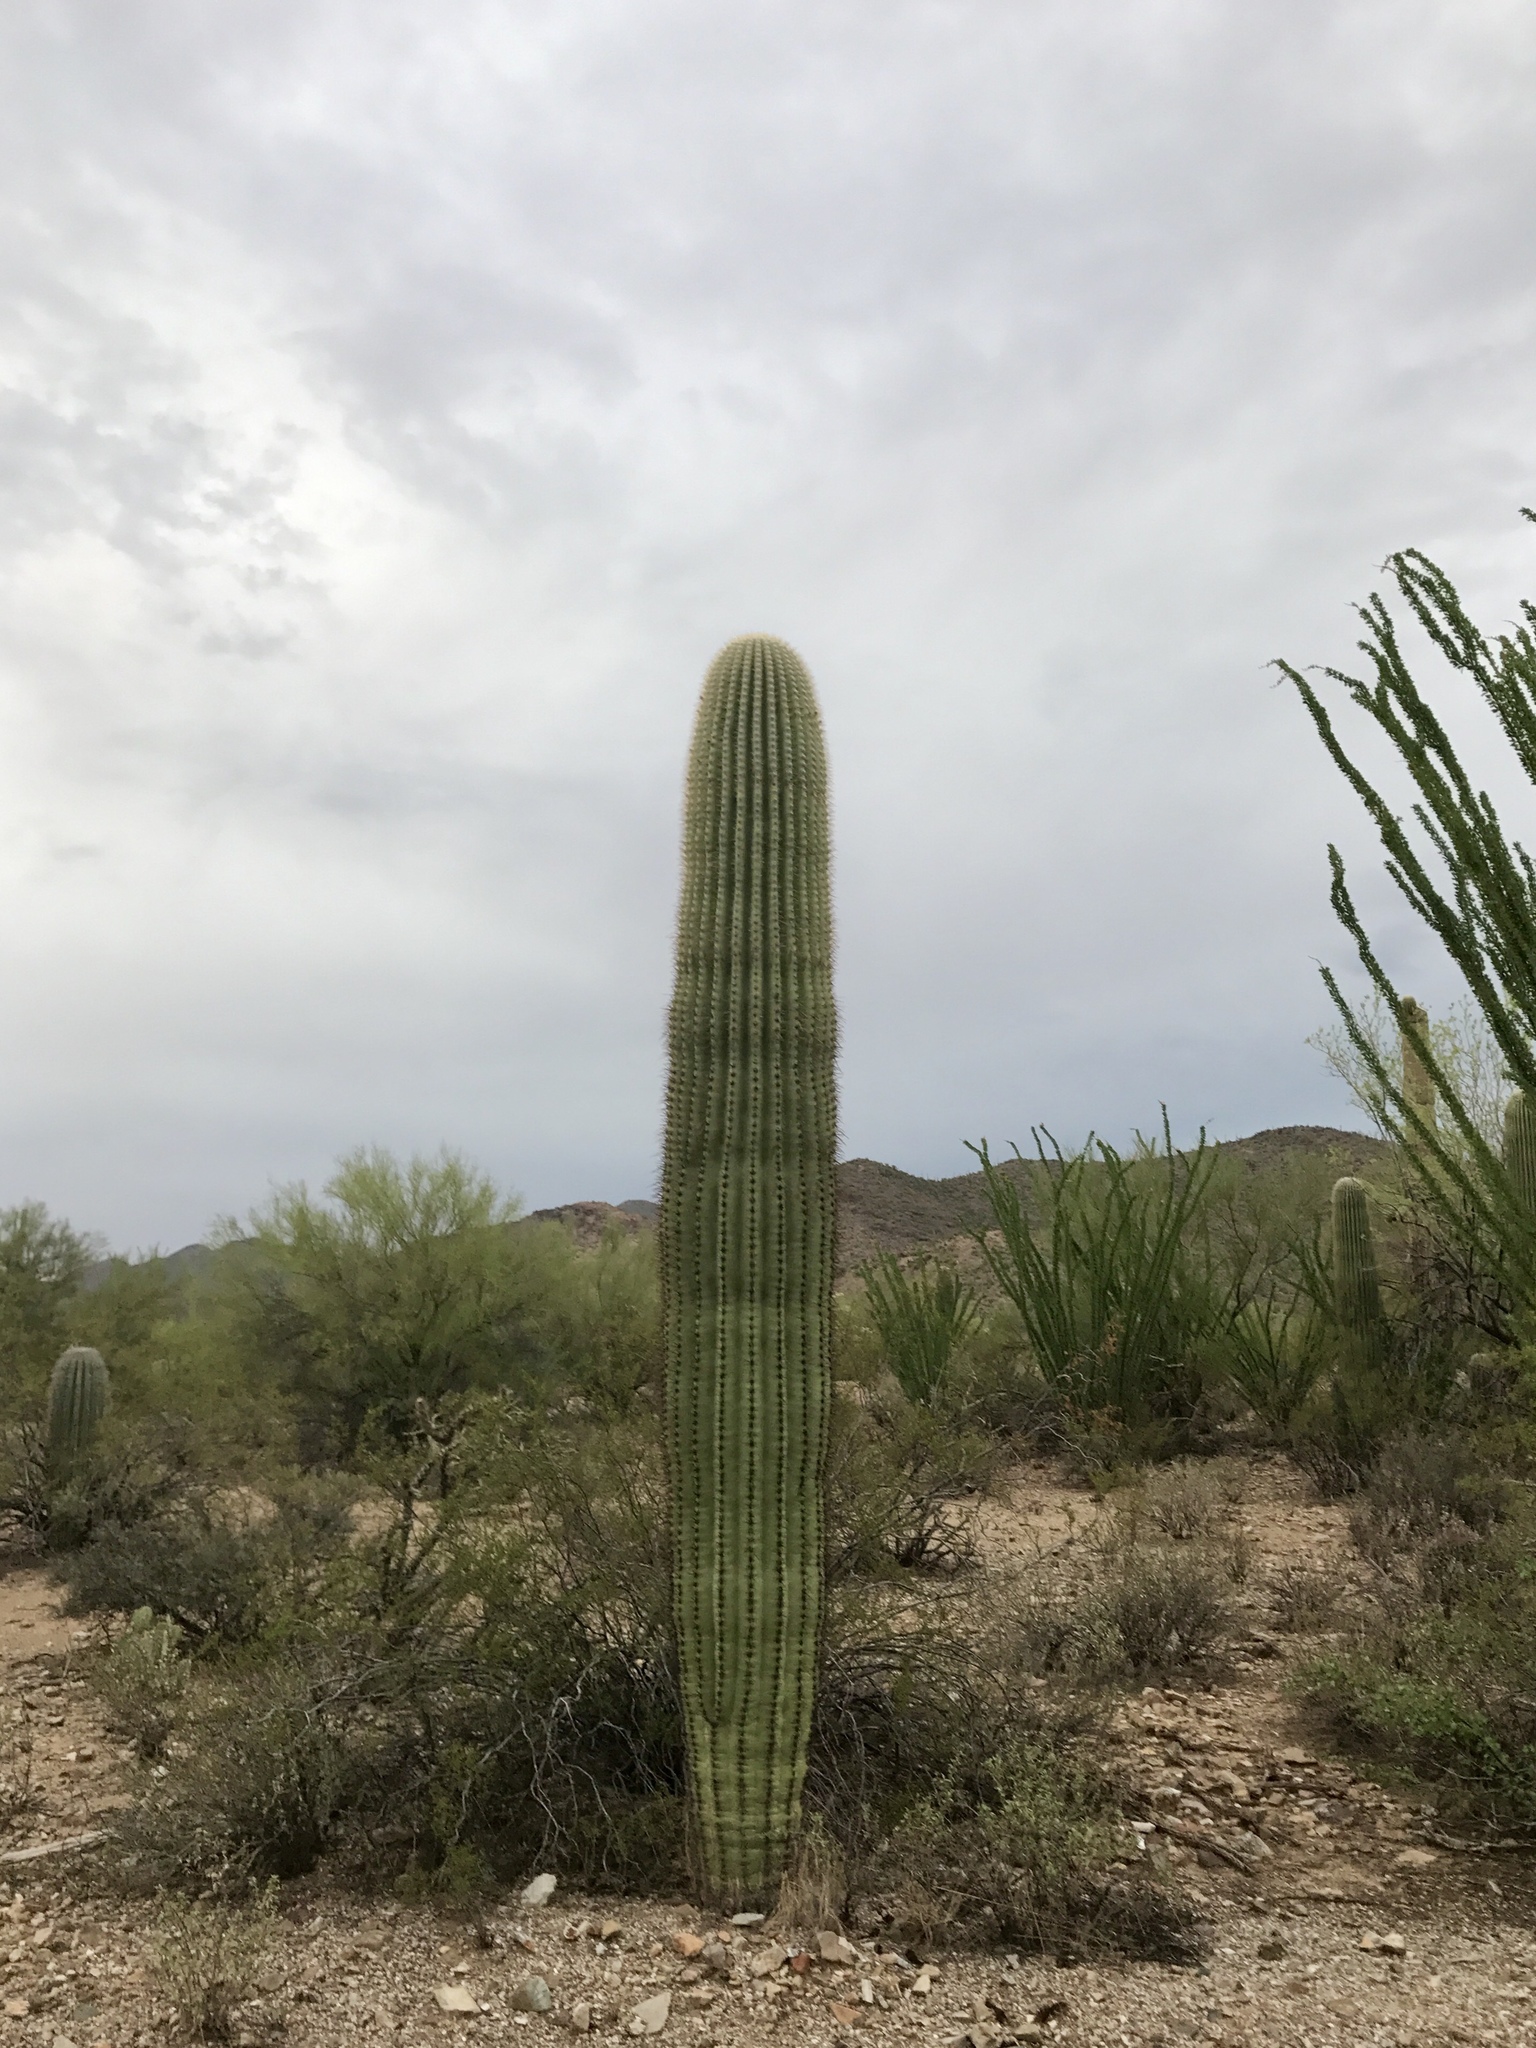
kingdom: Plantae
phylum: Tracheophyta
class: Magnoliopsida
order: Caryophyllales
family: Cactaceae
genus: Carnegiea
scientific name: Carnegiea gigantea
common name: Saguaro
